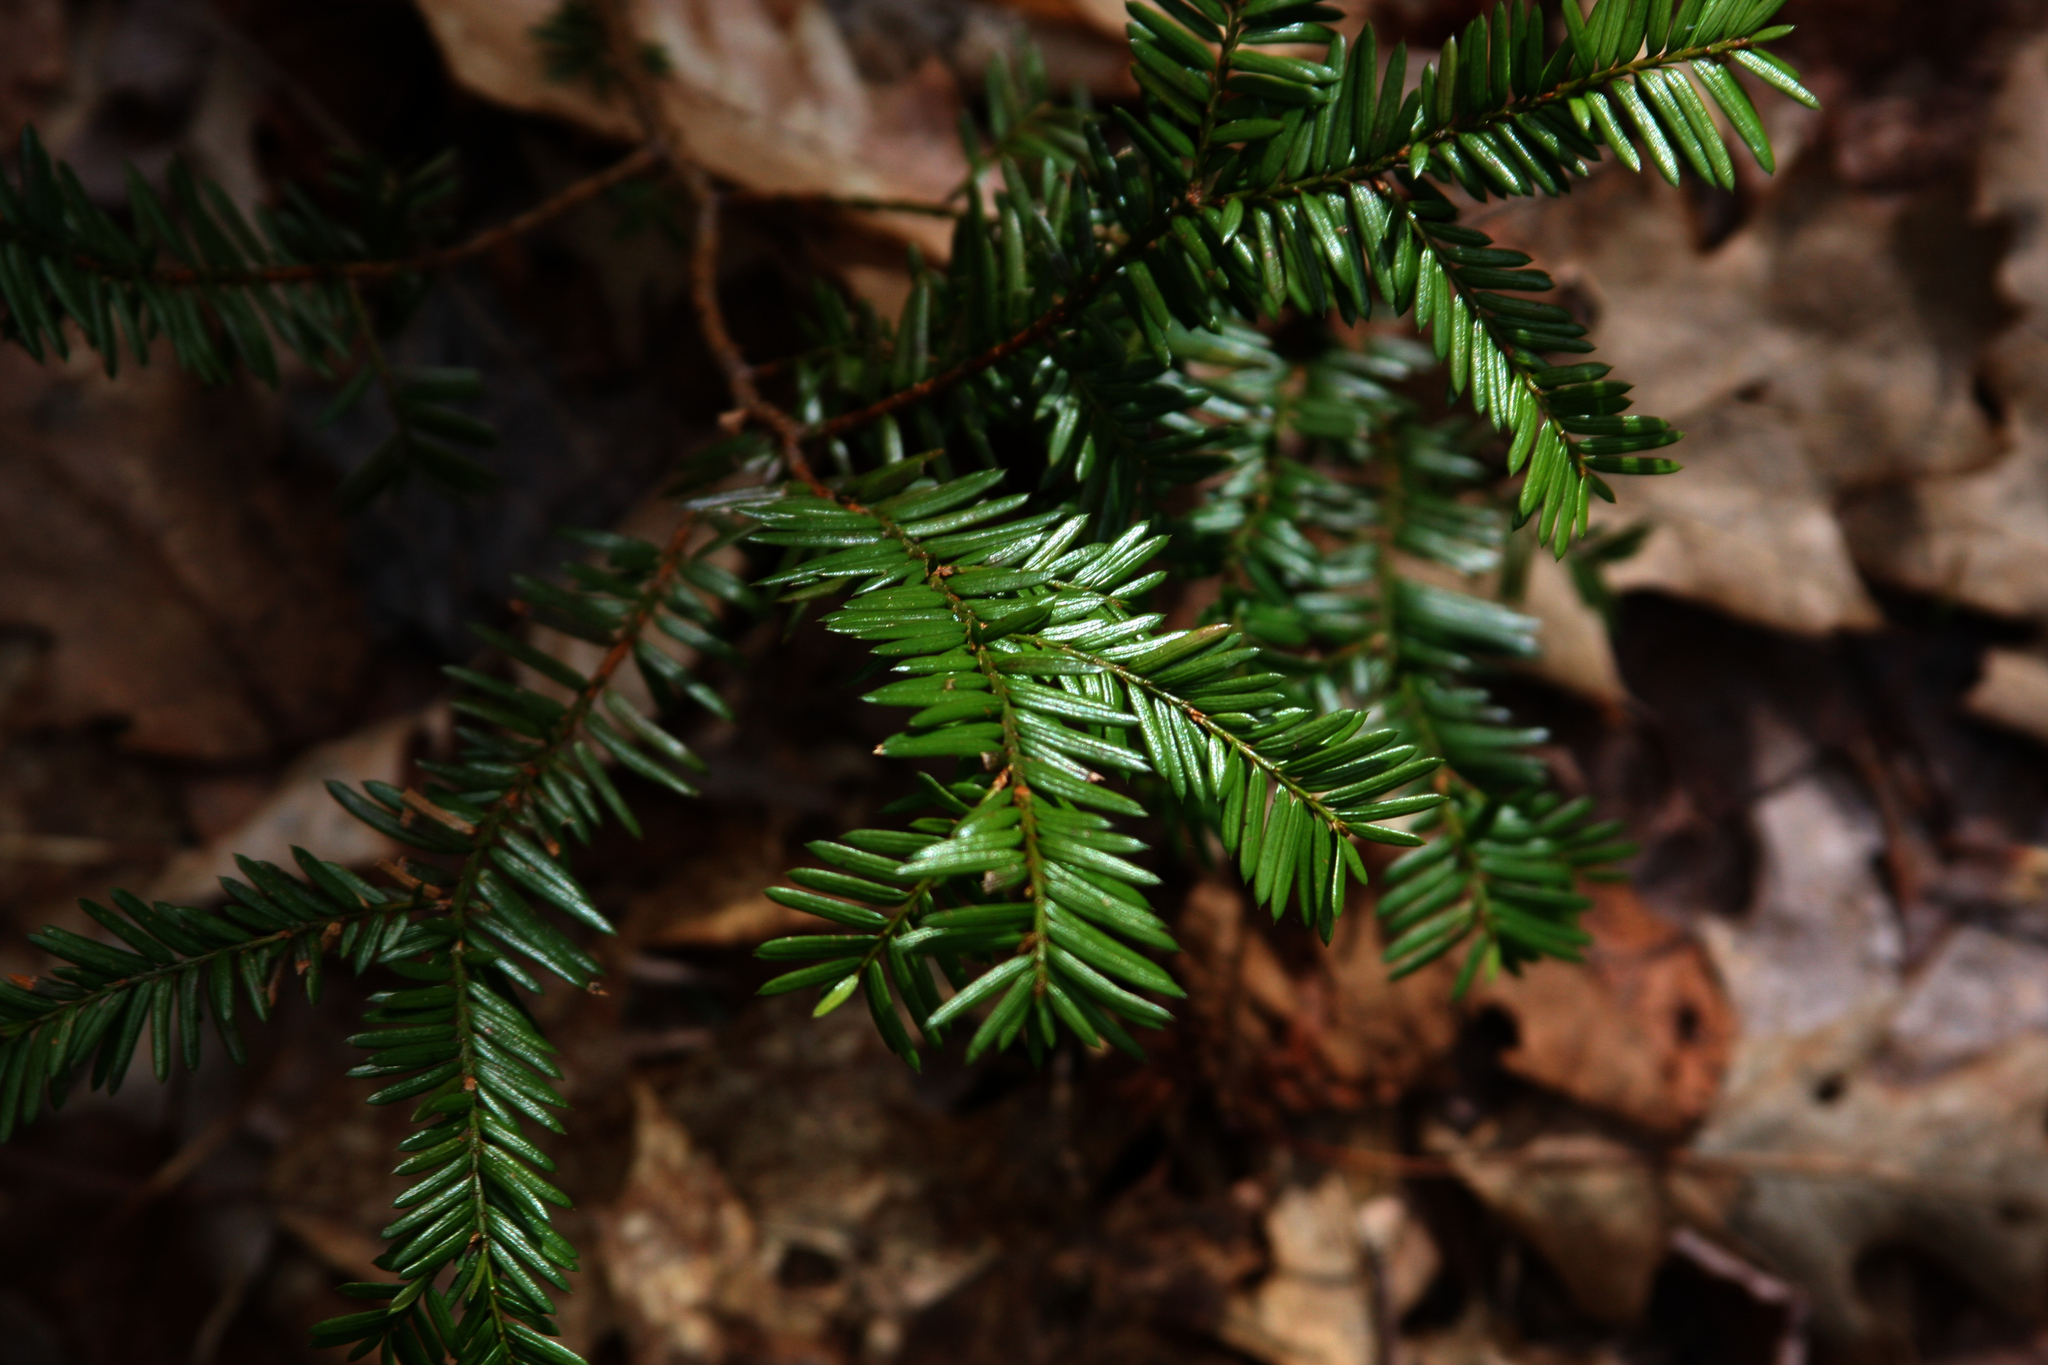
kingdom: Plantae
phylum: Tracheophyta
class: Pinopsida
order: Pinales
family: Taxaceae
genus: Taxus
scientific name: Taxus canadensis
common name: American yew
